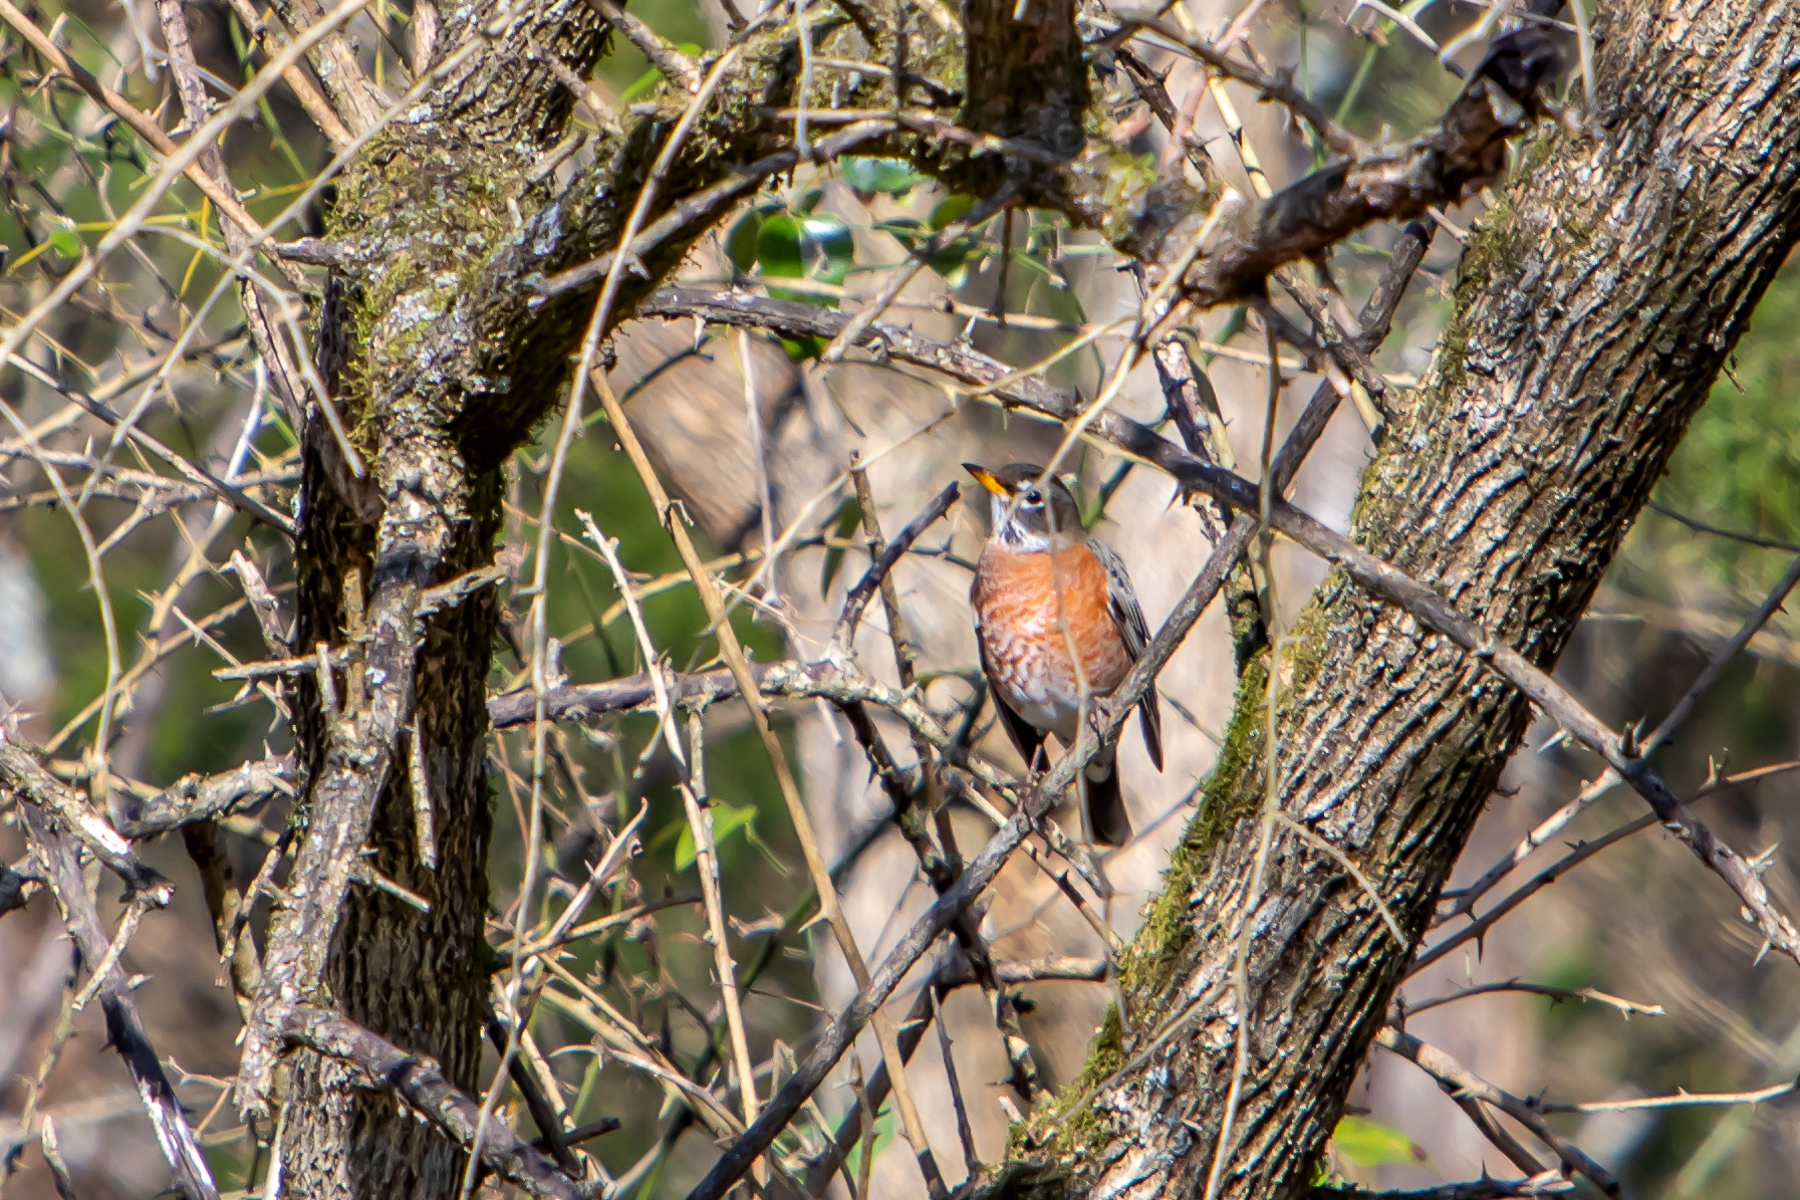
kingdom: Animalia
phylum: Chordata
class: Aves
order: Passeriformes
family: Turdidae
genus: Turdus
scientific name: Turdus migratorius
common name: American robin
